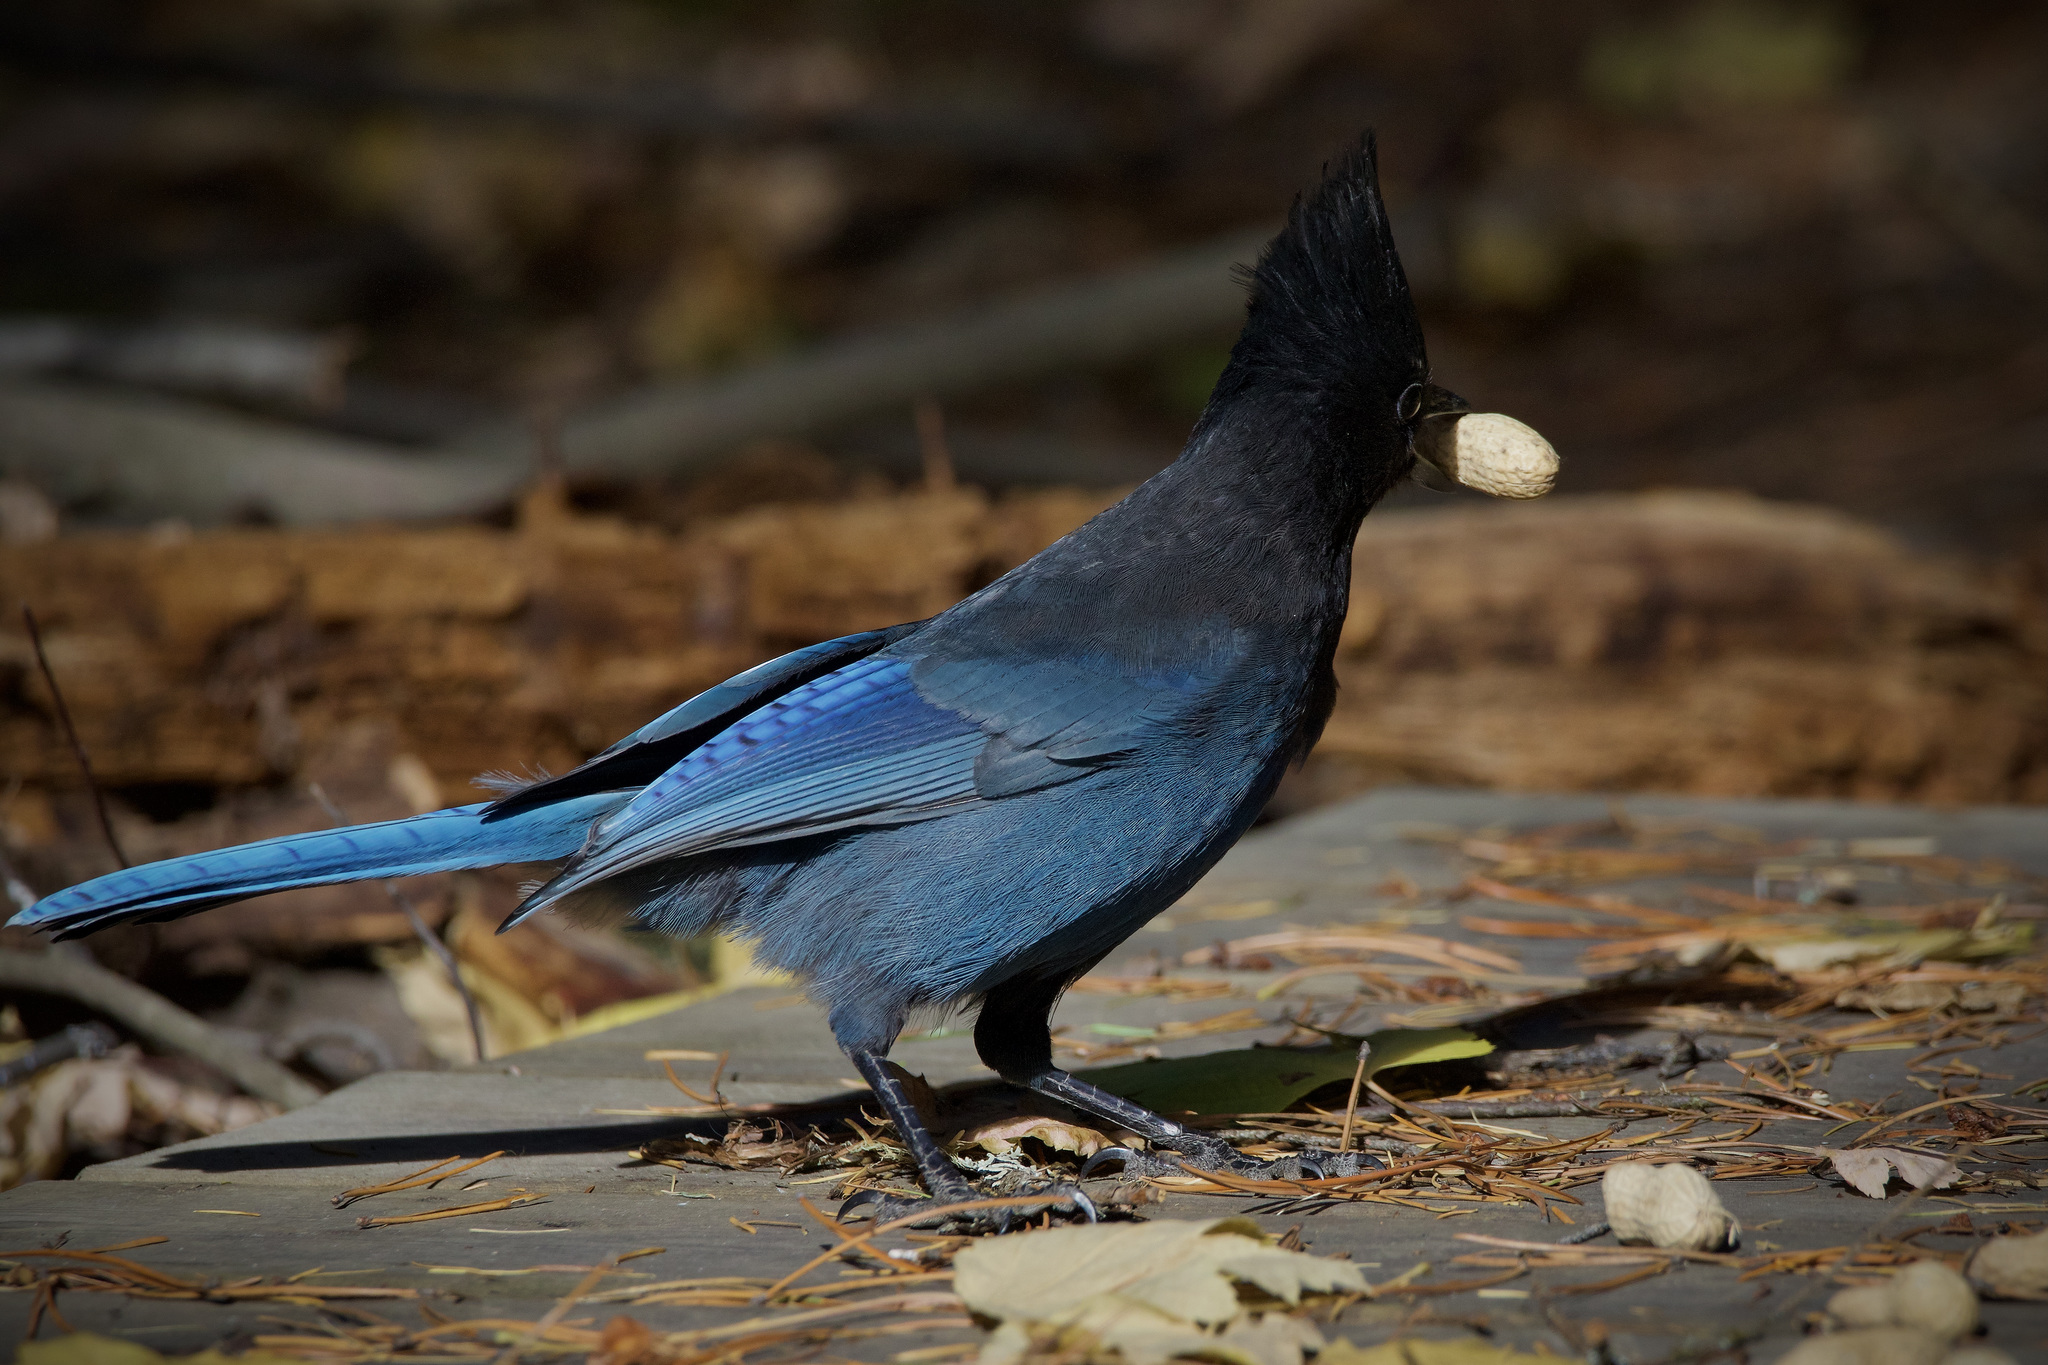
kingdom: Animalia
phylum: Chordata
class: Aves
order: Passeriformes
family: Corvidae
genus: Cyanocitta
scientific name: Cyanocitta stelleri
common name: Steller's jay
